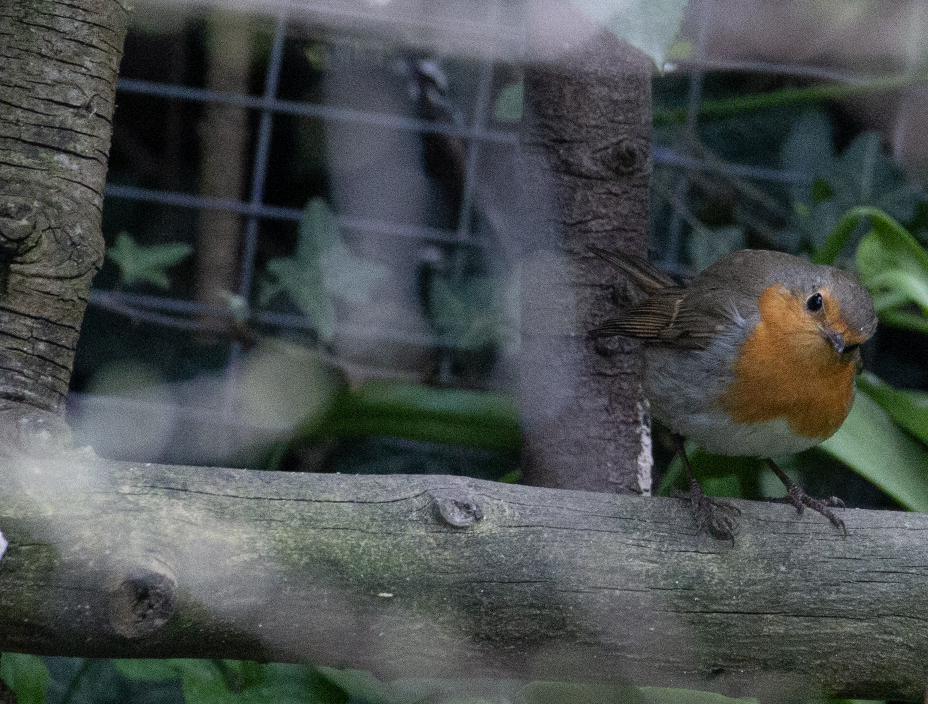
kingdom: Animalia
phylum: Chordata
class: Aves
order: Passeriformes
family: Muscicapidae
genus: Erithacus
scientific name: Erithacus rubecula
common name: European robin
